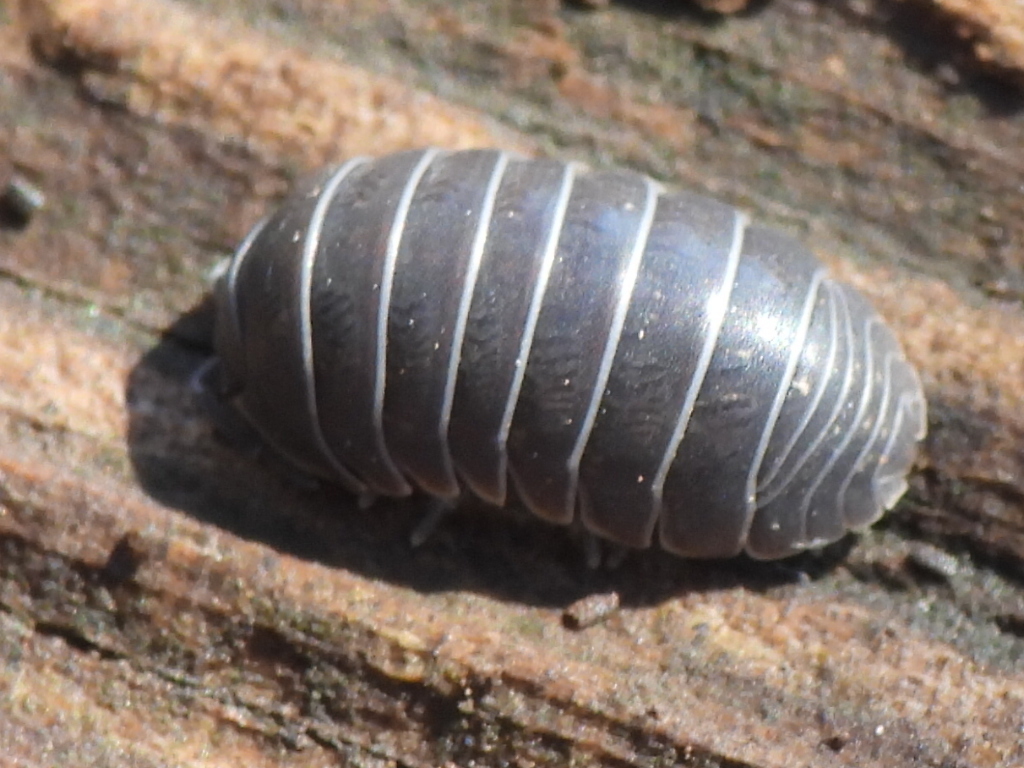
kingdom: Animalia
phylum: Arthropoda
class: Malacostraca
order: Isopoda
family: Armadillidiidae
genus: Armadillidium
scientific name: Armadillidium vulgare
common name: Common pill woodlouse
